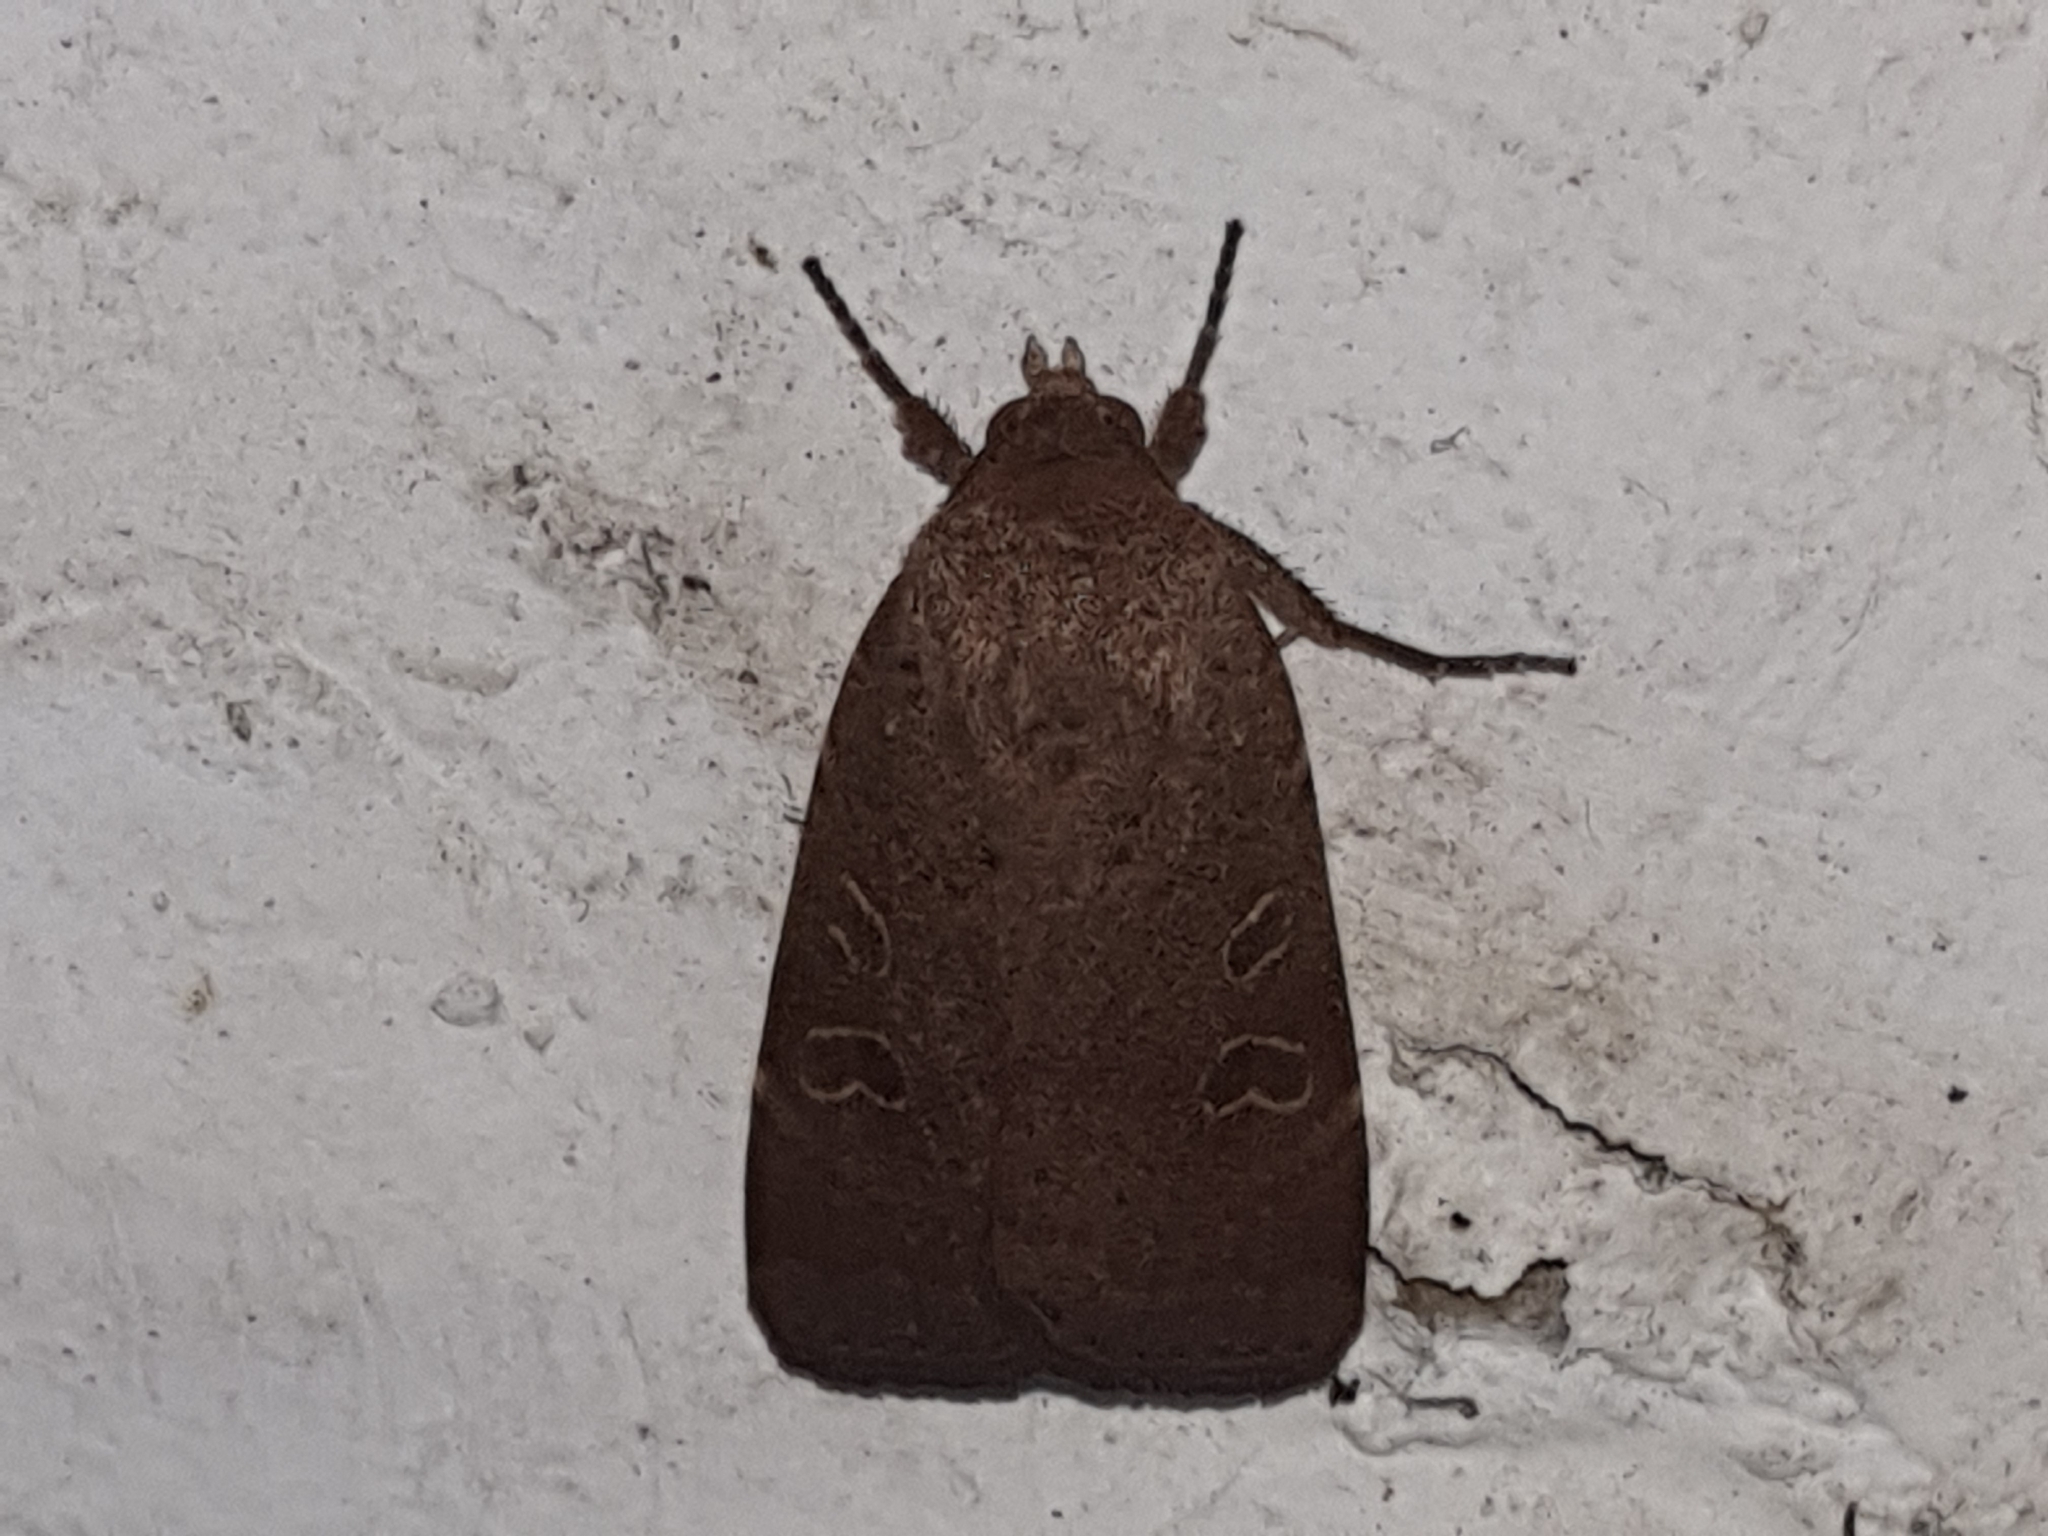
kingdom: Animalia
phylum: Arthropoda
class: Insecta
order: Lepidoptera
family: Noctuidae
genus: Noctua
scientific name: Noctua comes
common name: Lesser yellow underwing
